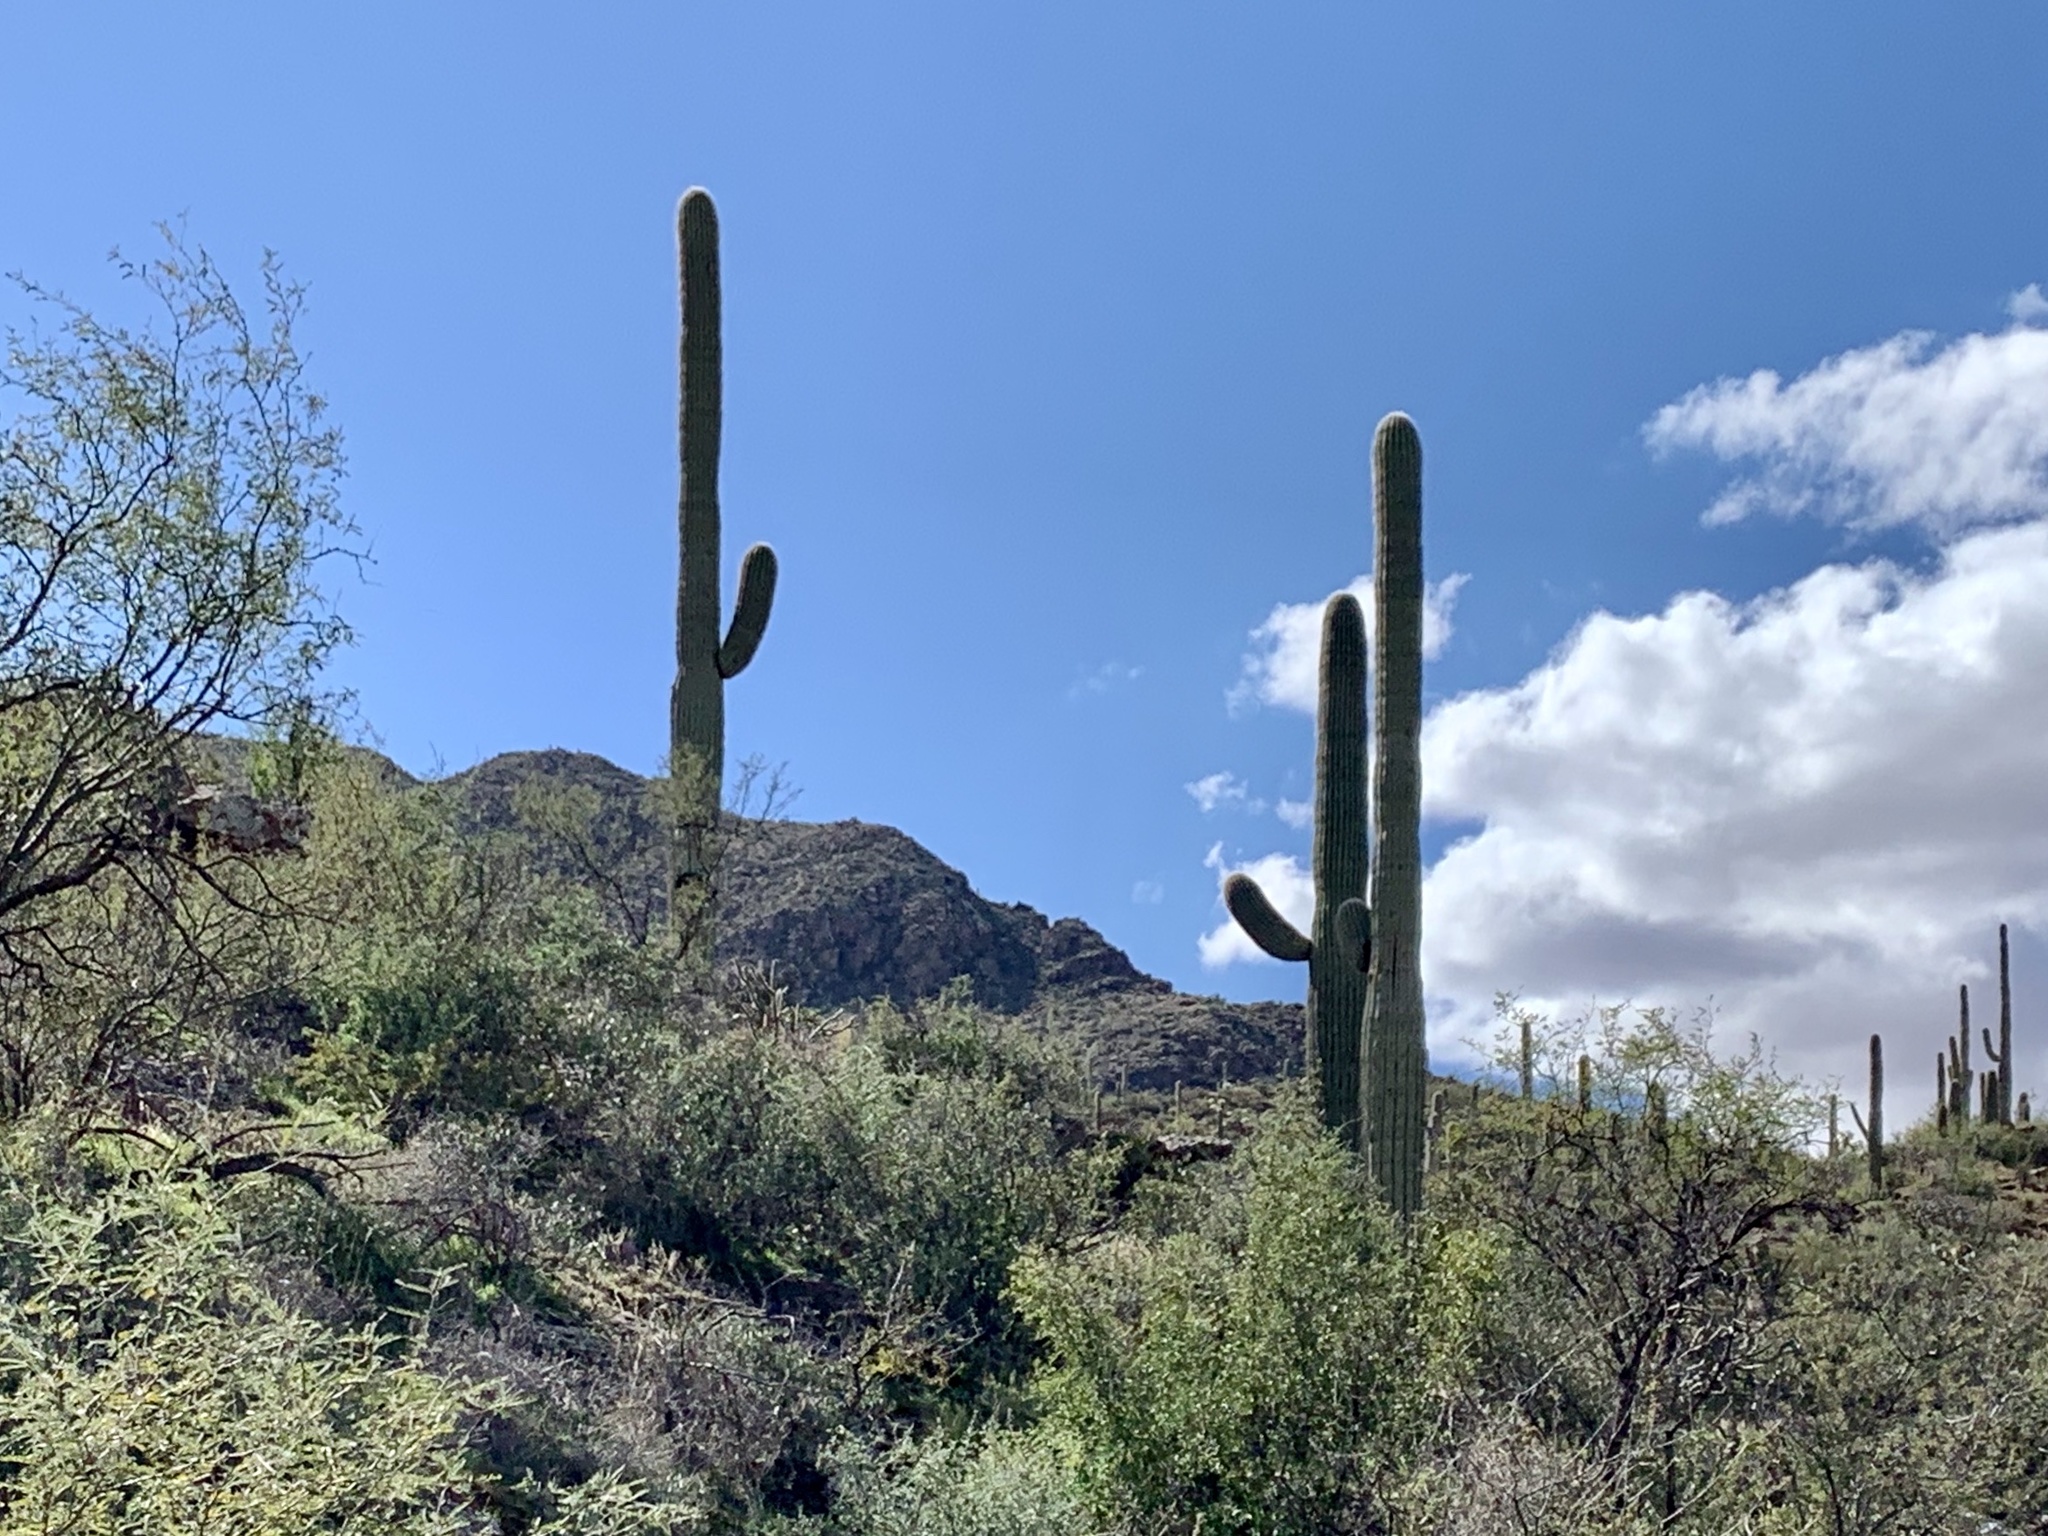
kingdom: Plantae
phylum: Tracheophyta
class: Magnoliopsida
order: Caryophyllales
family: Cactaceae
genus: Carnegiea
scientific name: Carnegiea gigantea
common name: Saguaro
